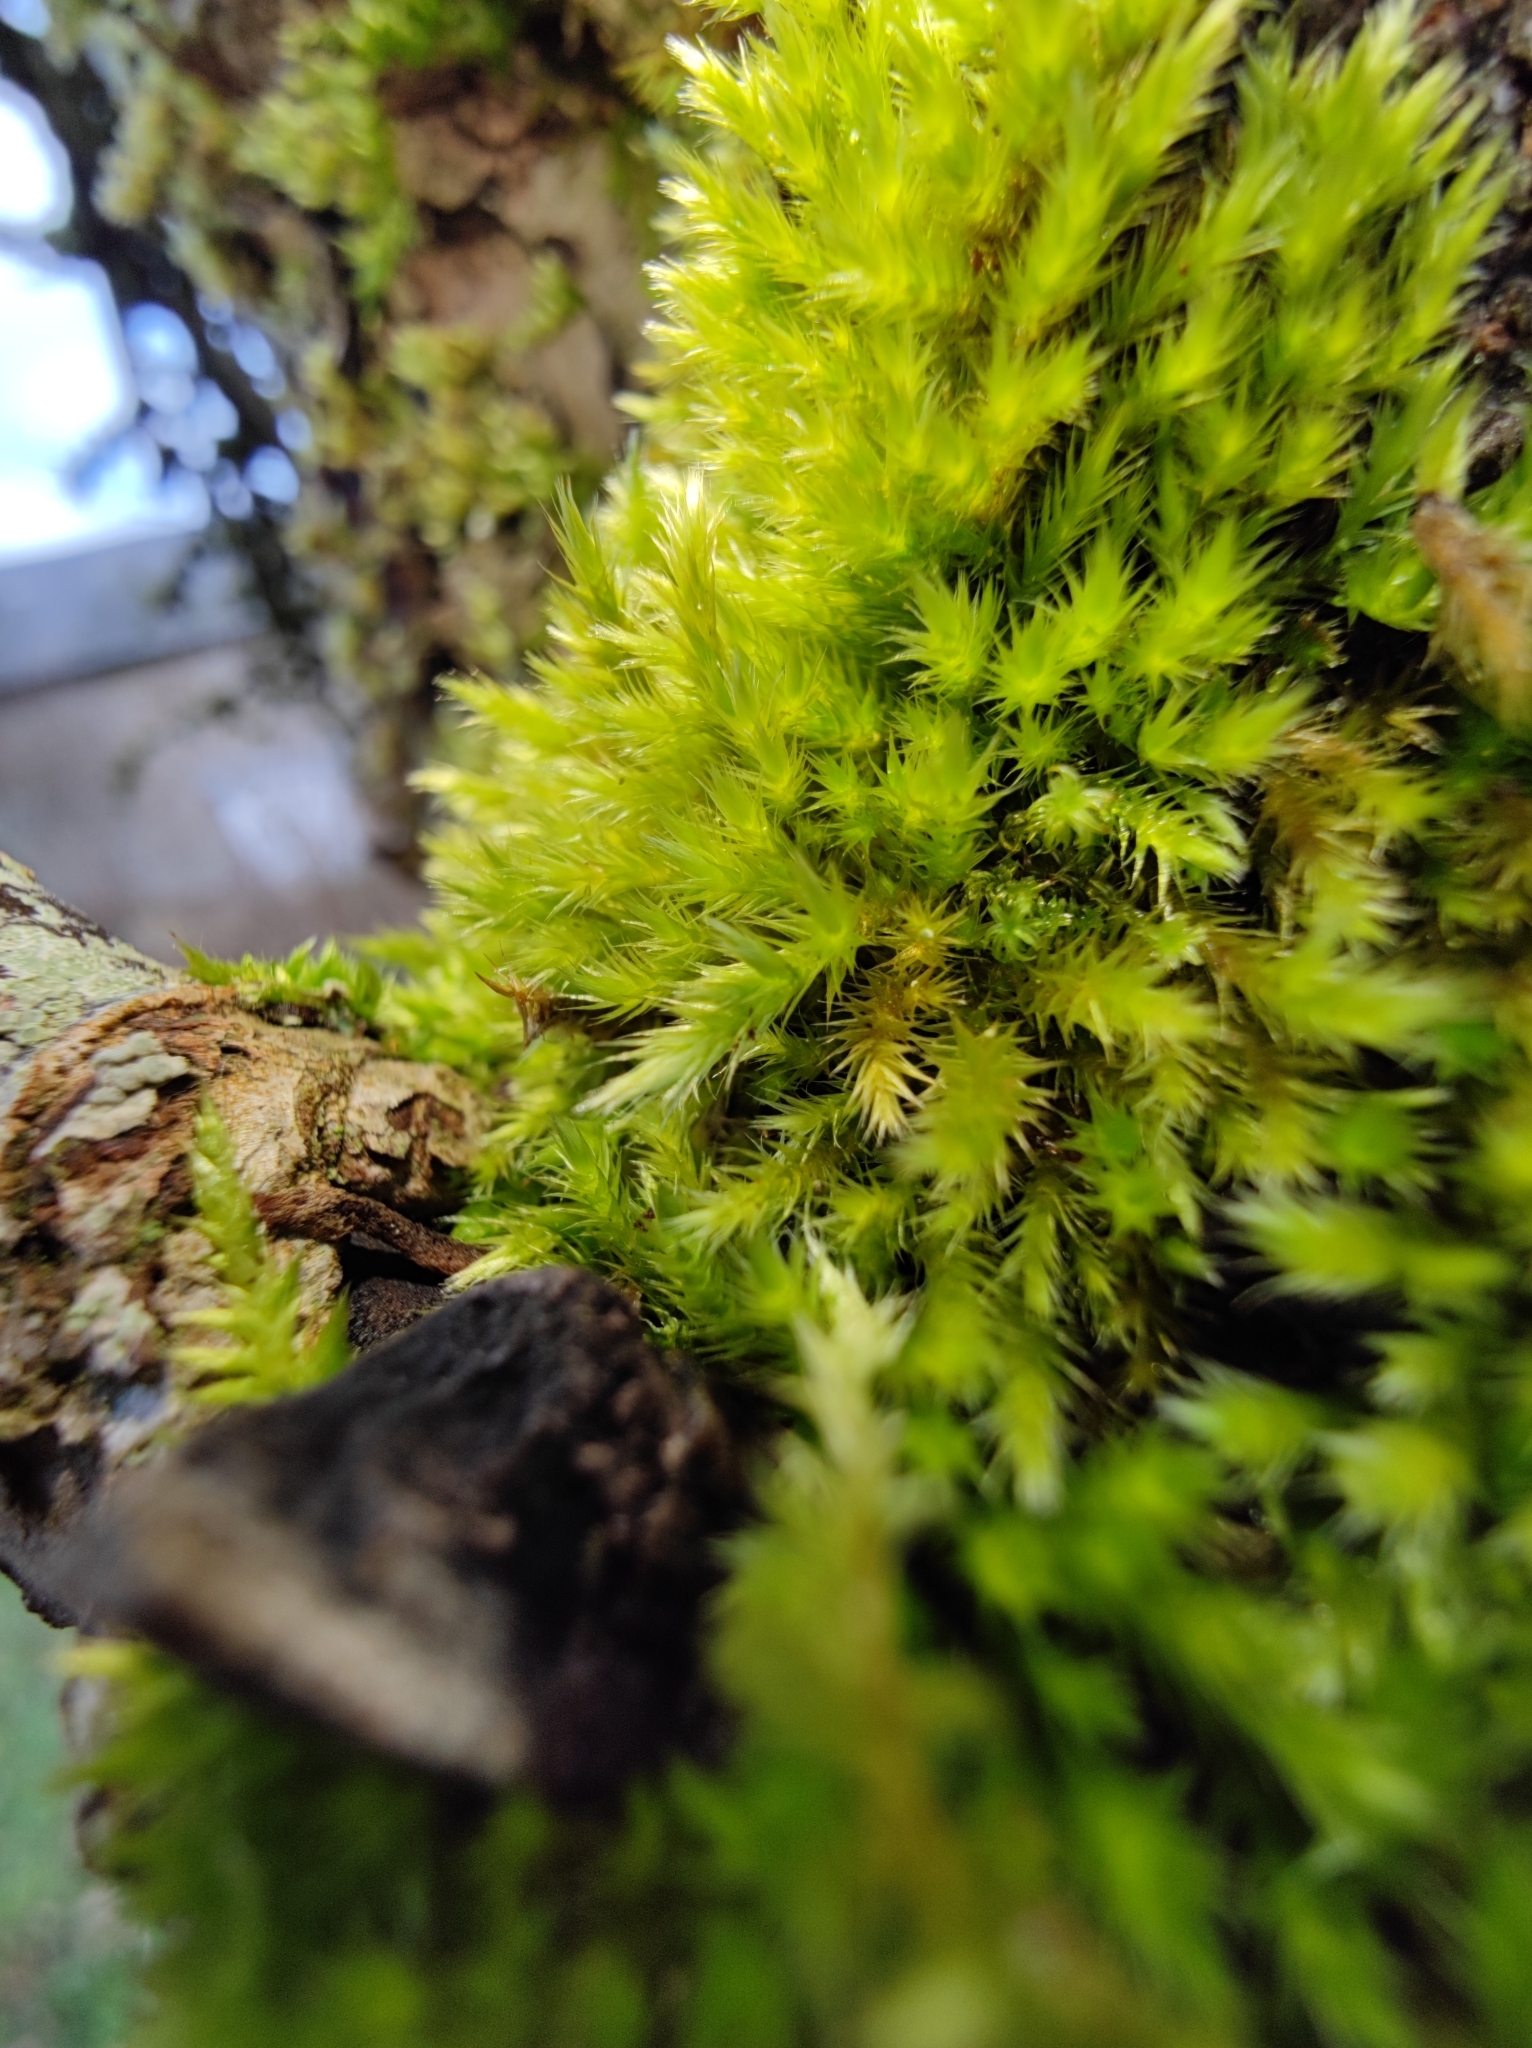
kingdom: Plantae
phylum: Bryophyta
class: Bryopsida
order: Hypnales
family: Brachytheciaceae
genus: Homalothecium
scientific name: Homalothecium sericeum
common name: Silky wall feather-moss
